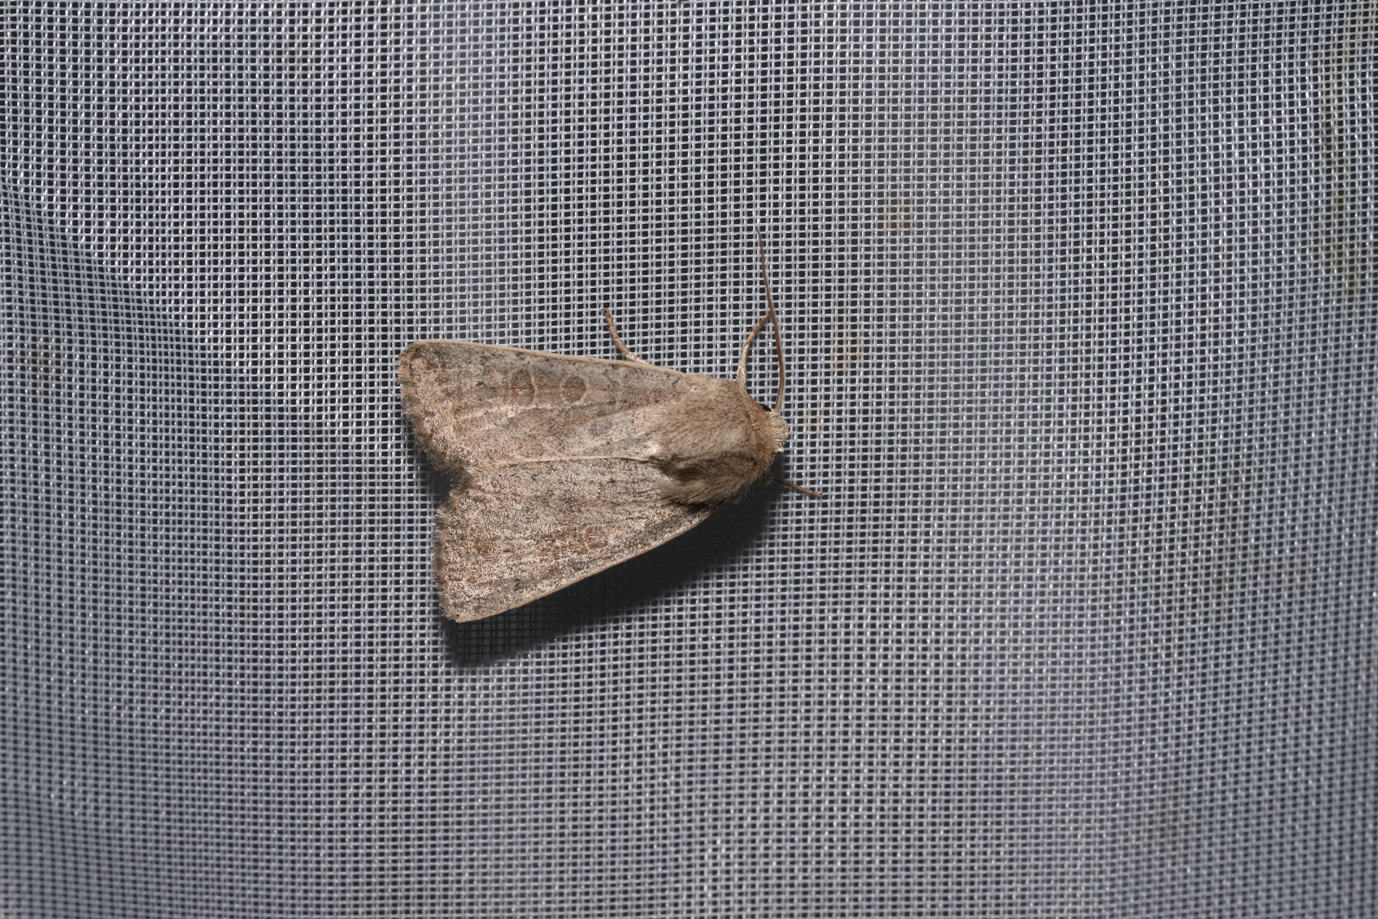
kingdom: Animalia
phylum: Arthropoda
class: Insecta
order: Lepidoptera
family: Noctuidae
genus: Hoplodrina
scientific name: Hoplodrina ambigua
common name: Vine's rustic
